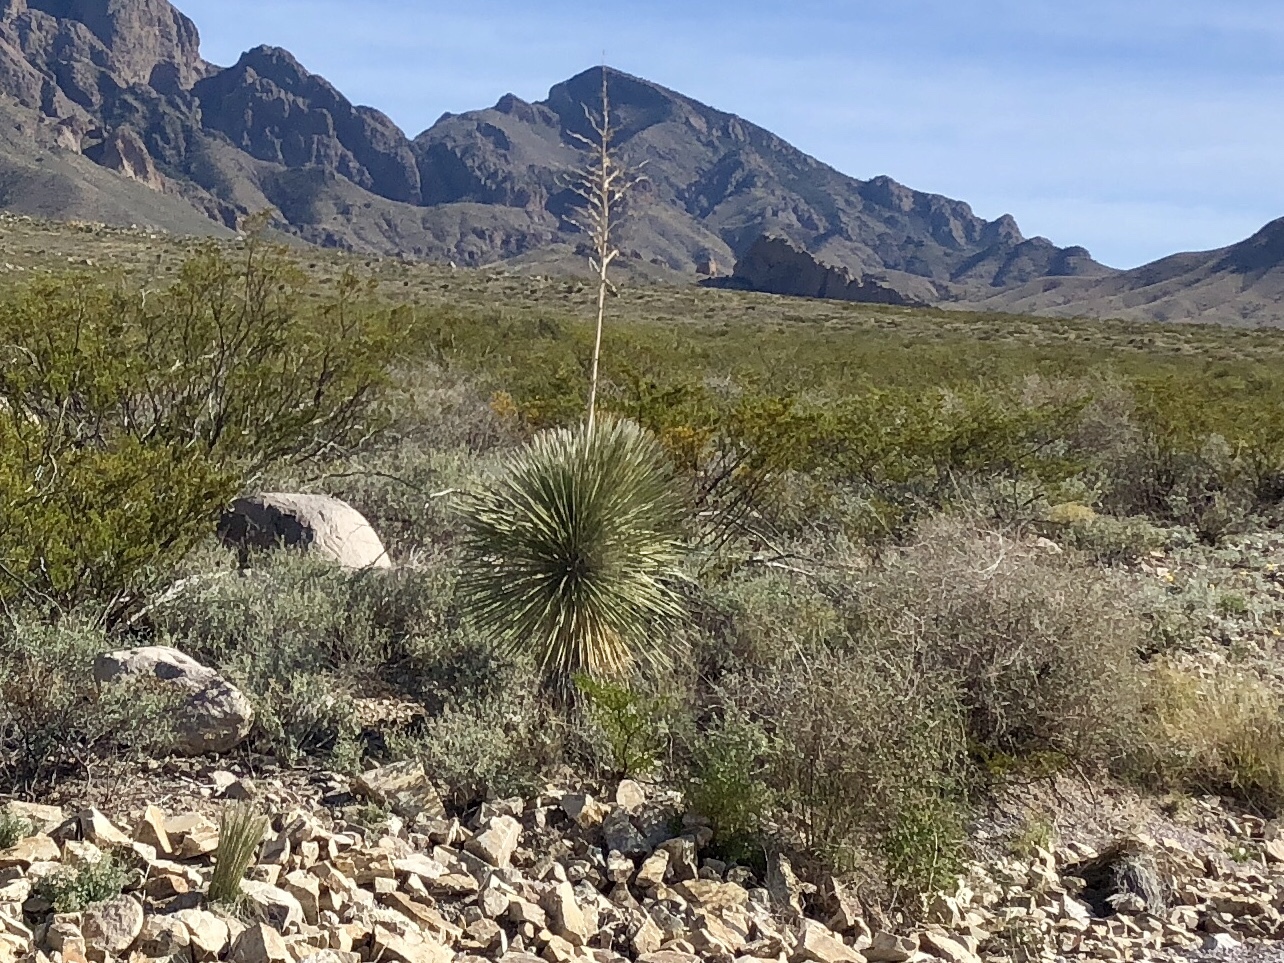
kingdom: Plantae
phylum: Tracheophyta
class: Liliopsida
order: Asparagales
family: Asparagaceae
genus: Yucca
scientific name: Yucca elata
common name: Palmella
